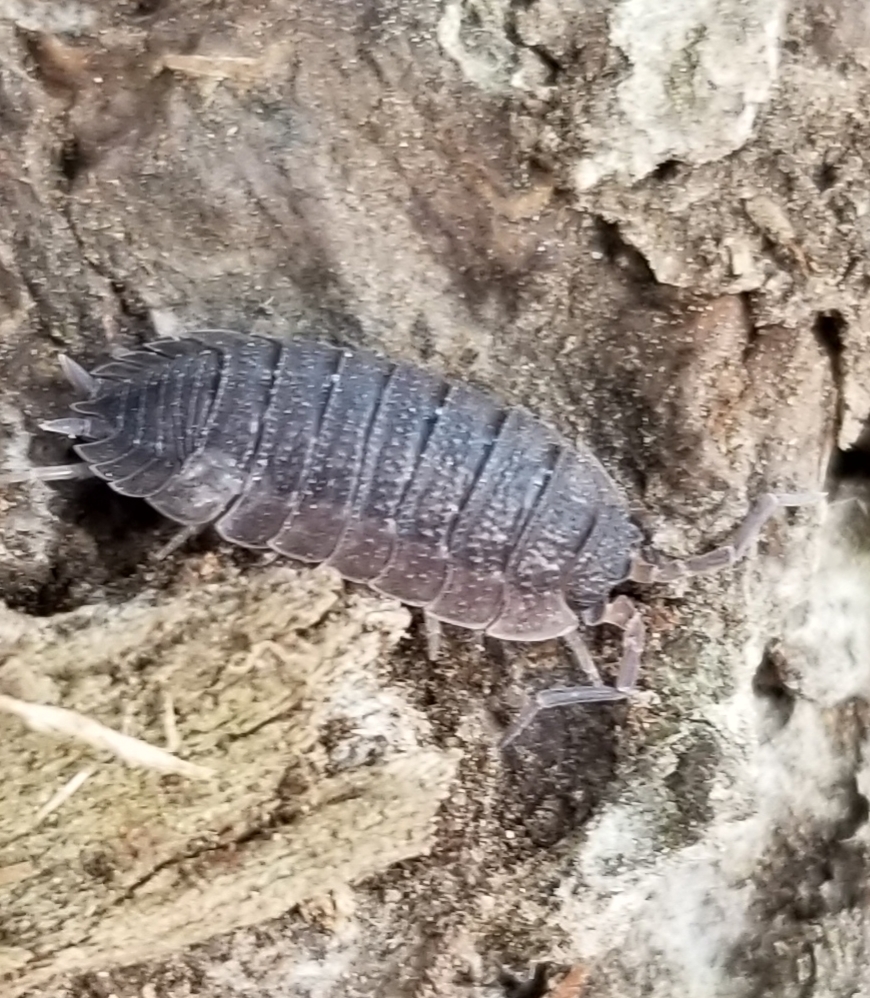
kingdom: Animalia
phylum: Arthropoda
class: Malacostraca
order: Isopoda
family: Porcellionidae
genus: Porcellio
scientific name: Porcellio scaber
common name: Common rough woodlouse
